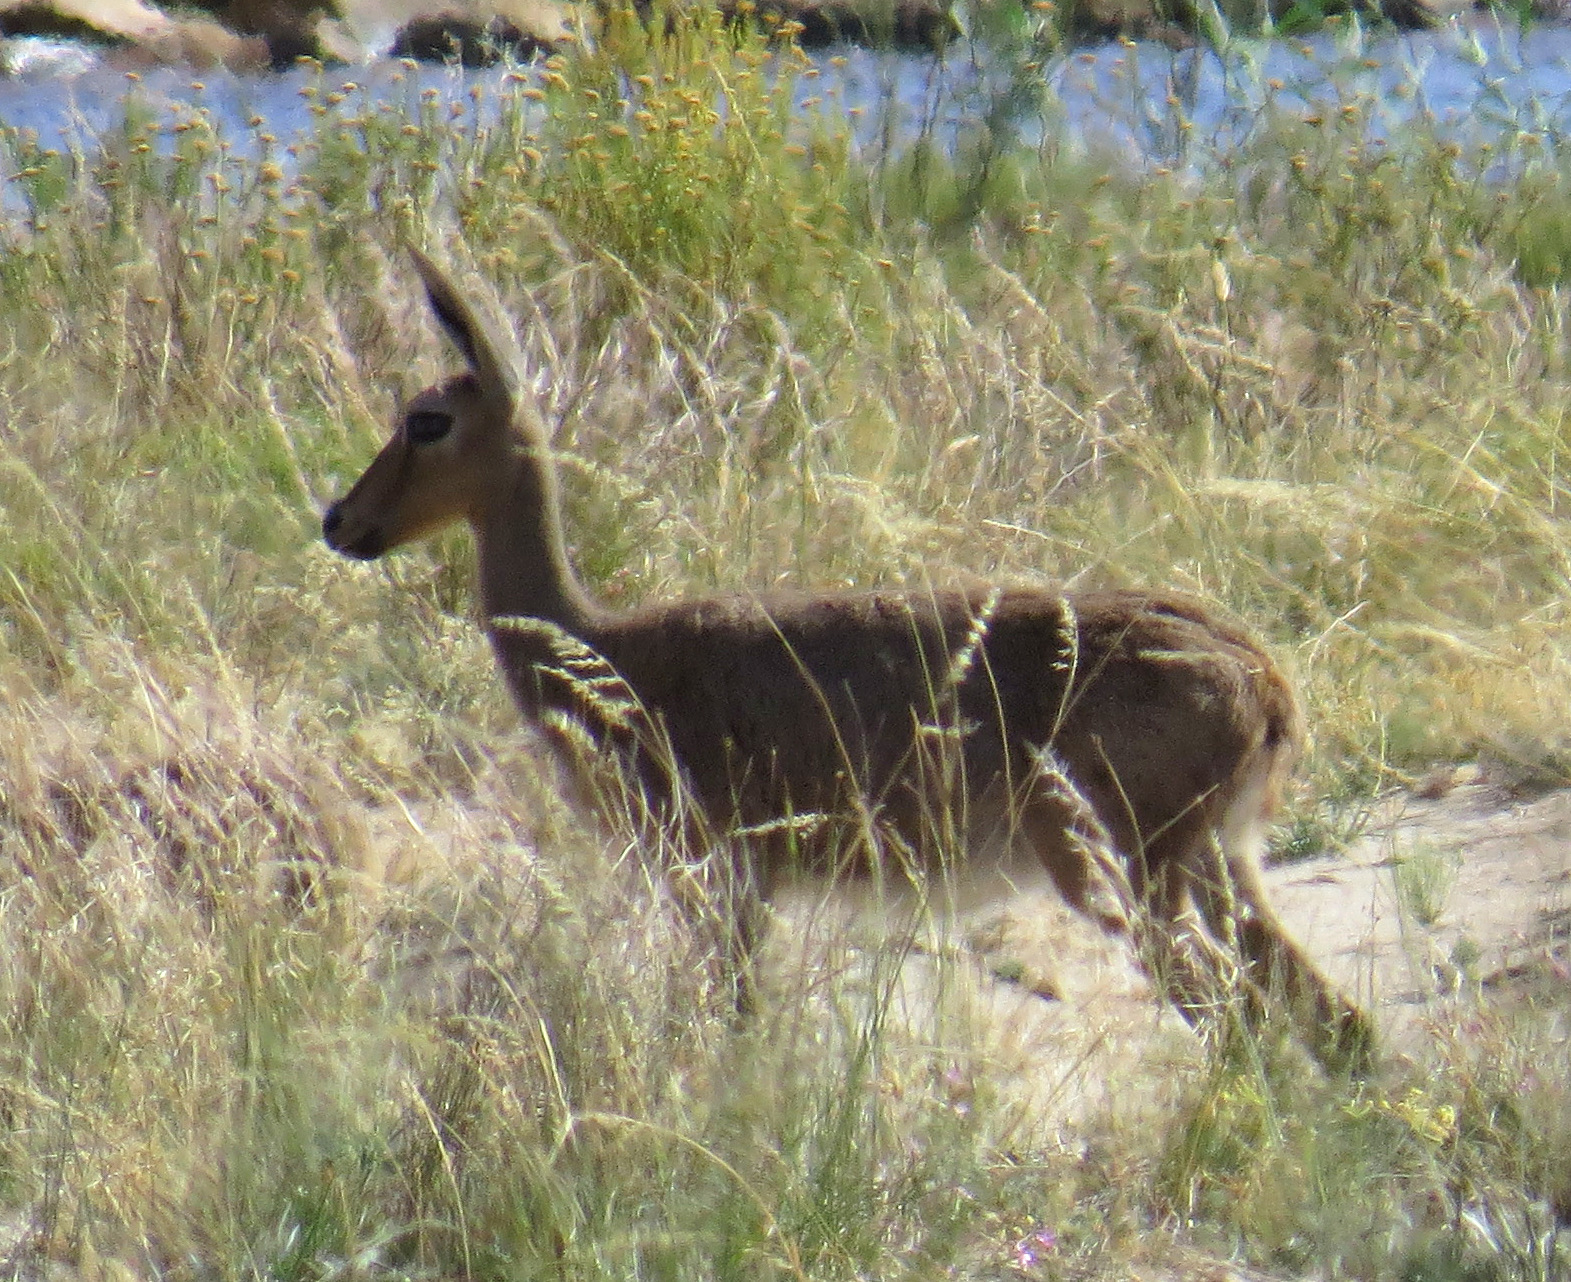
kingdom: Animalia
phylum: Chordata
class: Mammalia
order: Artiodactyla
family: Bovidae
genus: Pelea
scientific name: Pelea capreolus
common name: Common rhebok
